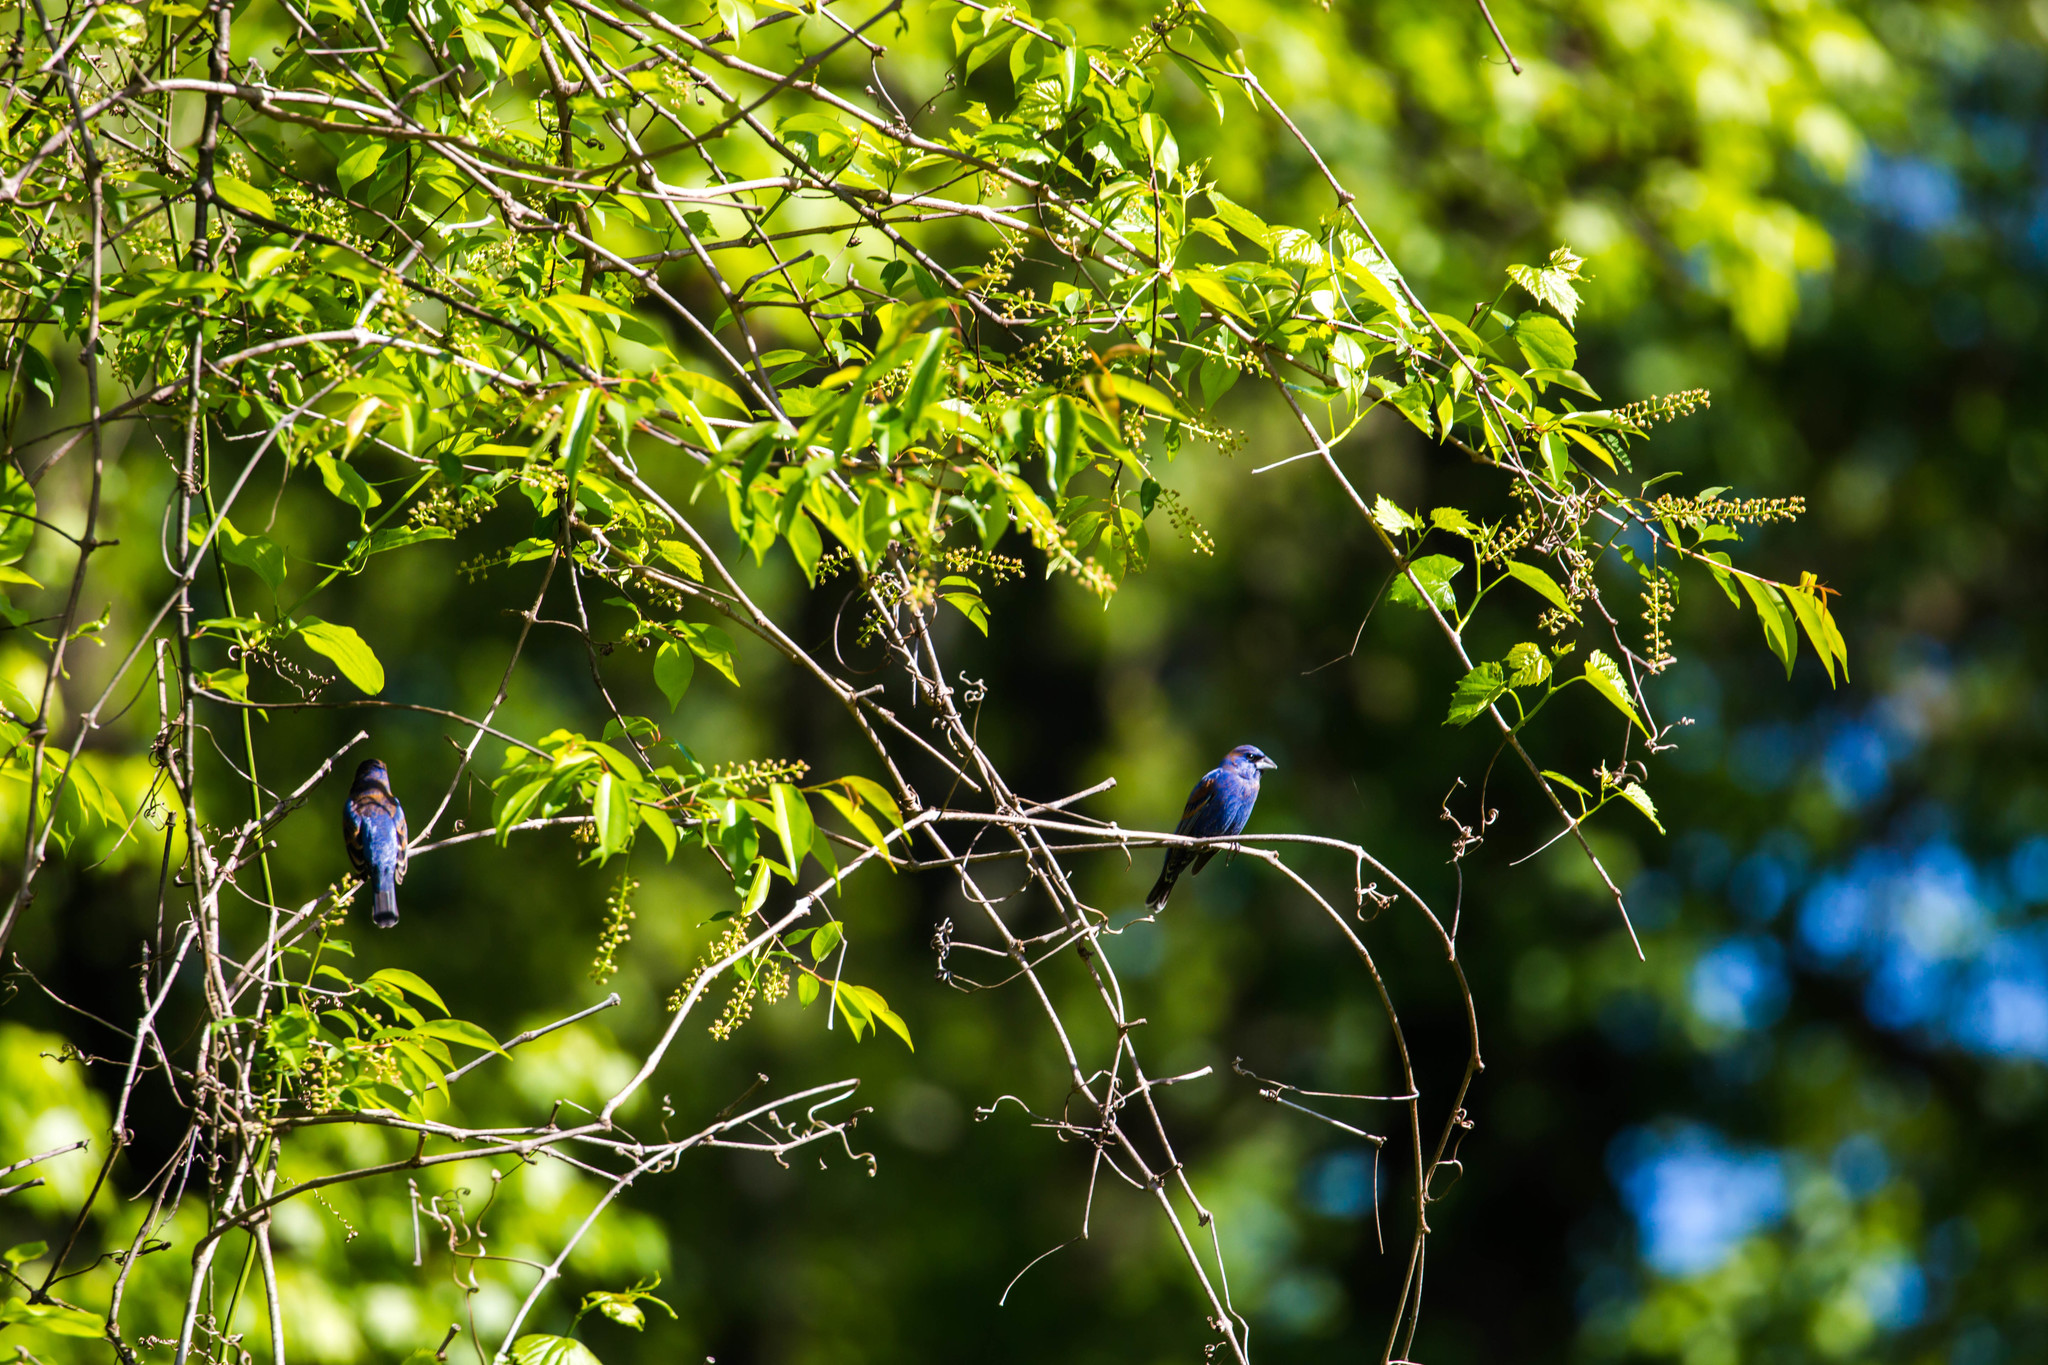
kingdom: Animalia
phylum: Chordata
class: Aves
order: Passeriformes
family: Cardinalidae
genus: Passerina
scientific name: Passerina caerulea
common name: Blue grosbeak
